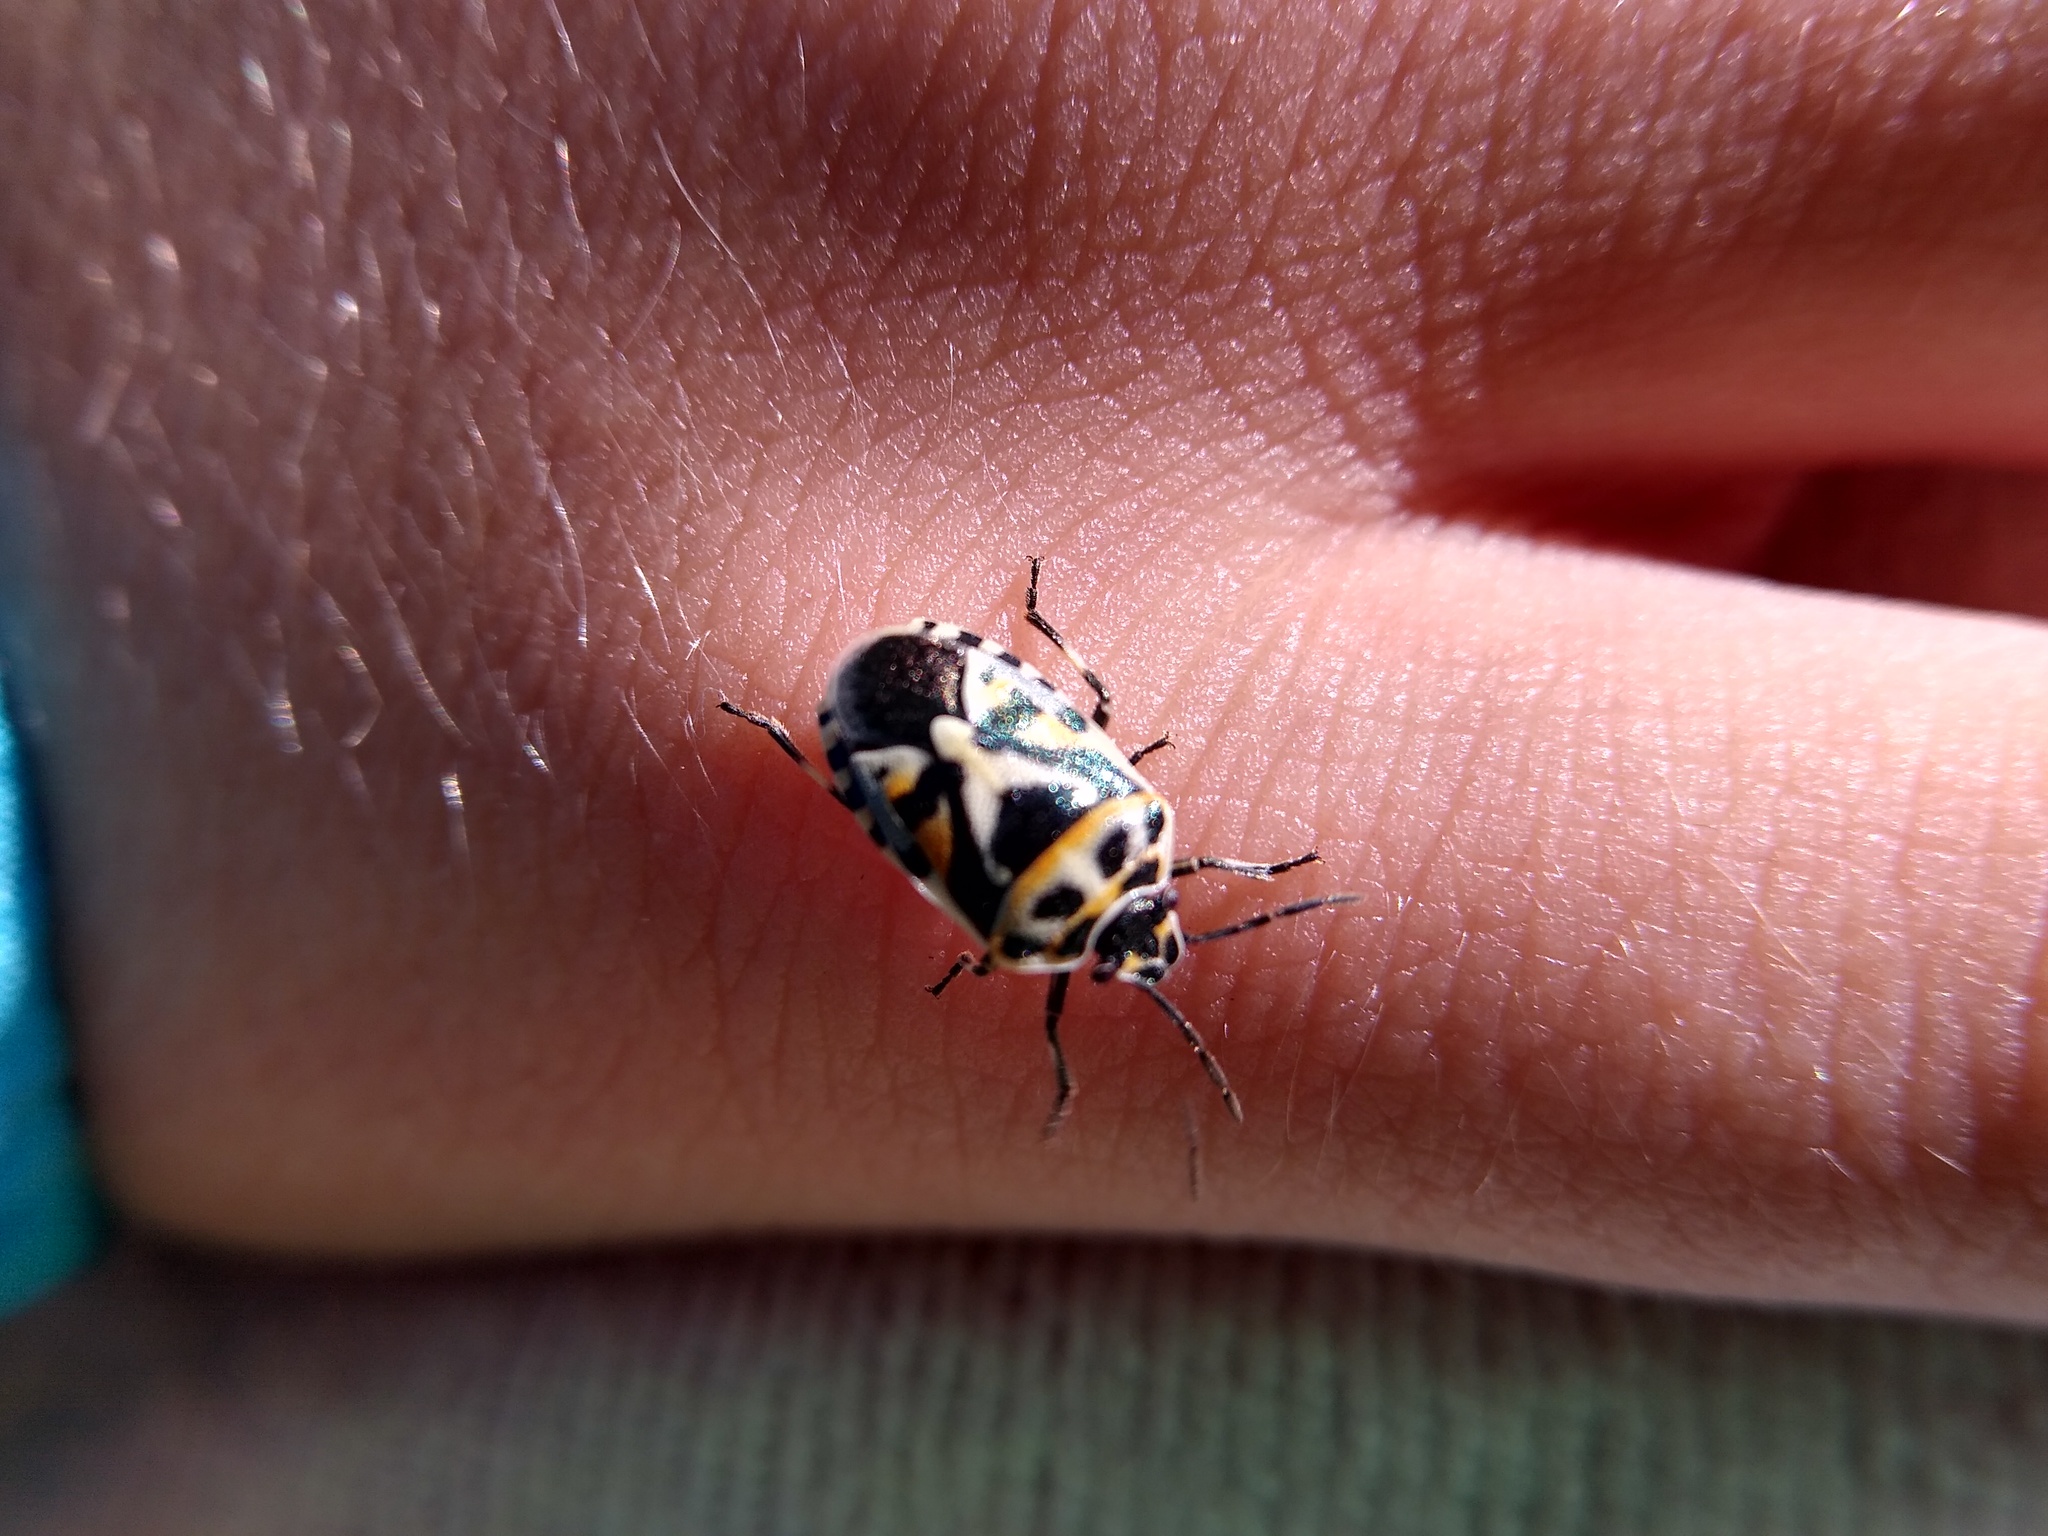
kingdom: Animalia
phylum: Arthropoda
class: Insecta
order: Hemiptera
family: Pentatomidae
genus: Eurydema
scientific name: Eurydema ornata
